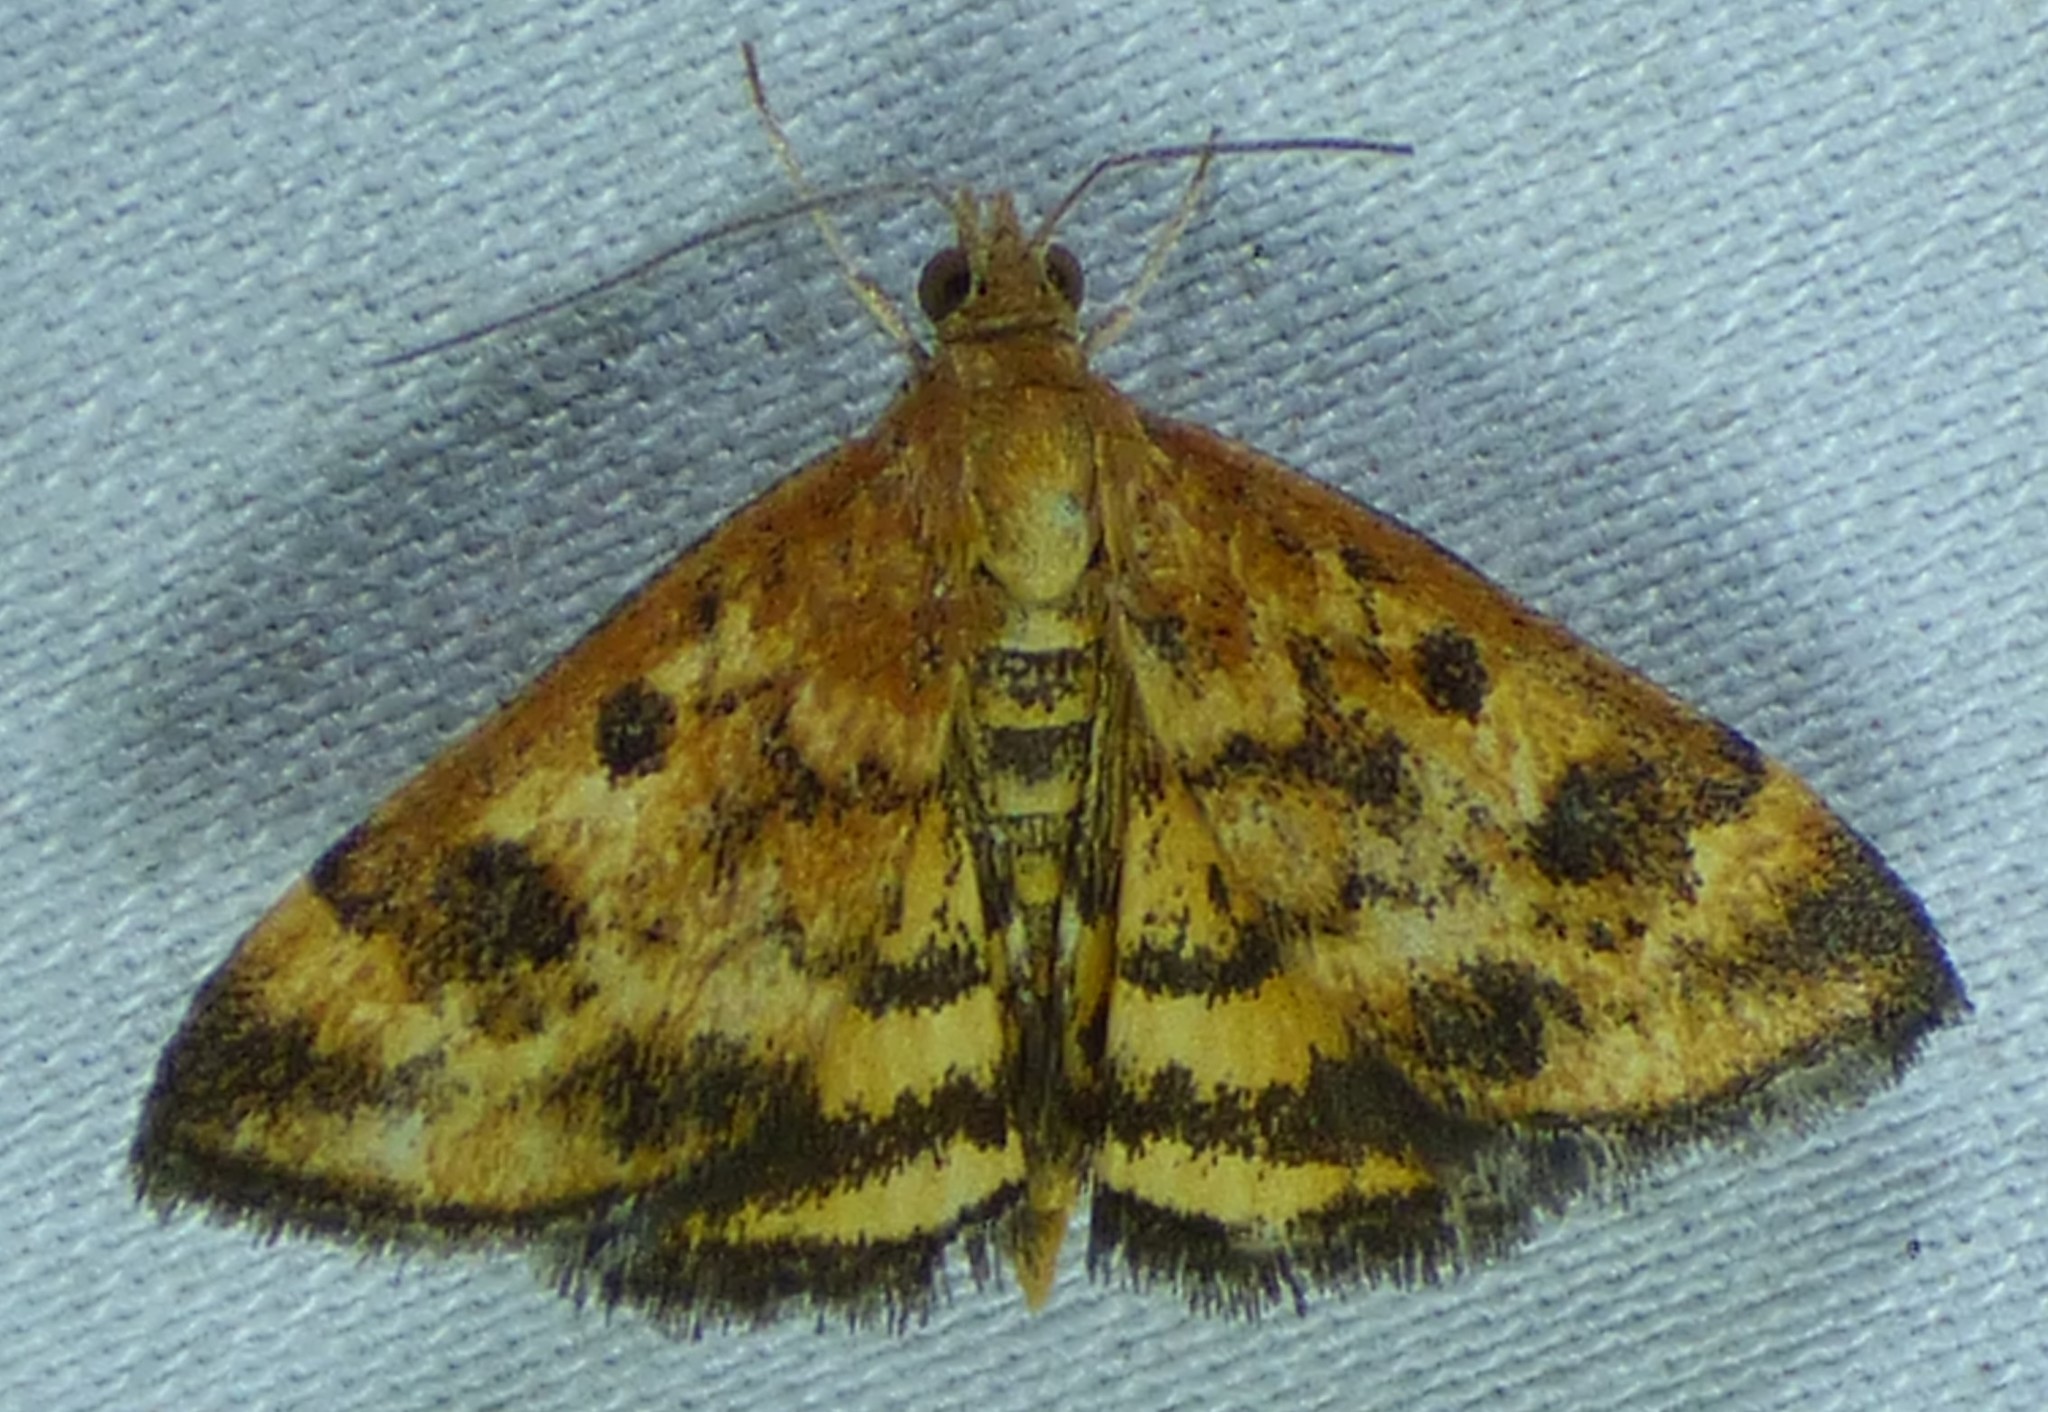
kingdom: Animalia
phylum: Arthropoda
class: Insecta
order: Lepidoptera
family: Crambidae
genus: Pyrausta
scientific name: Pyrausta subsequalis
